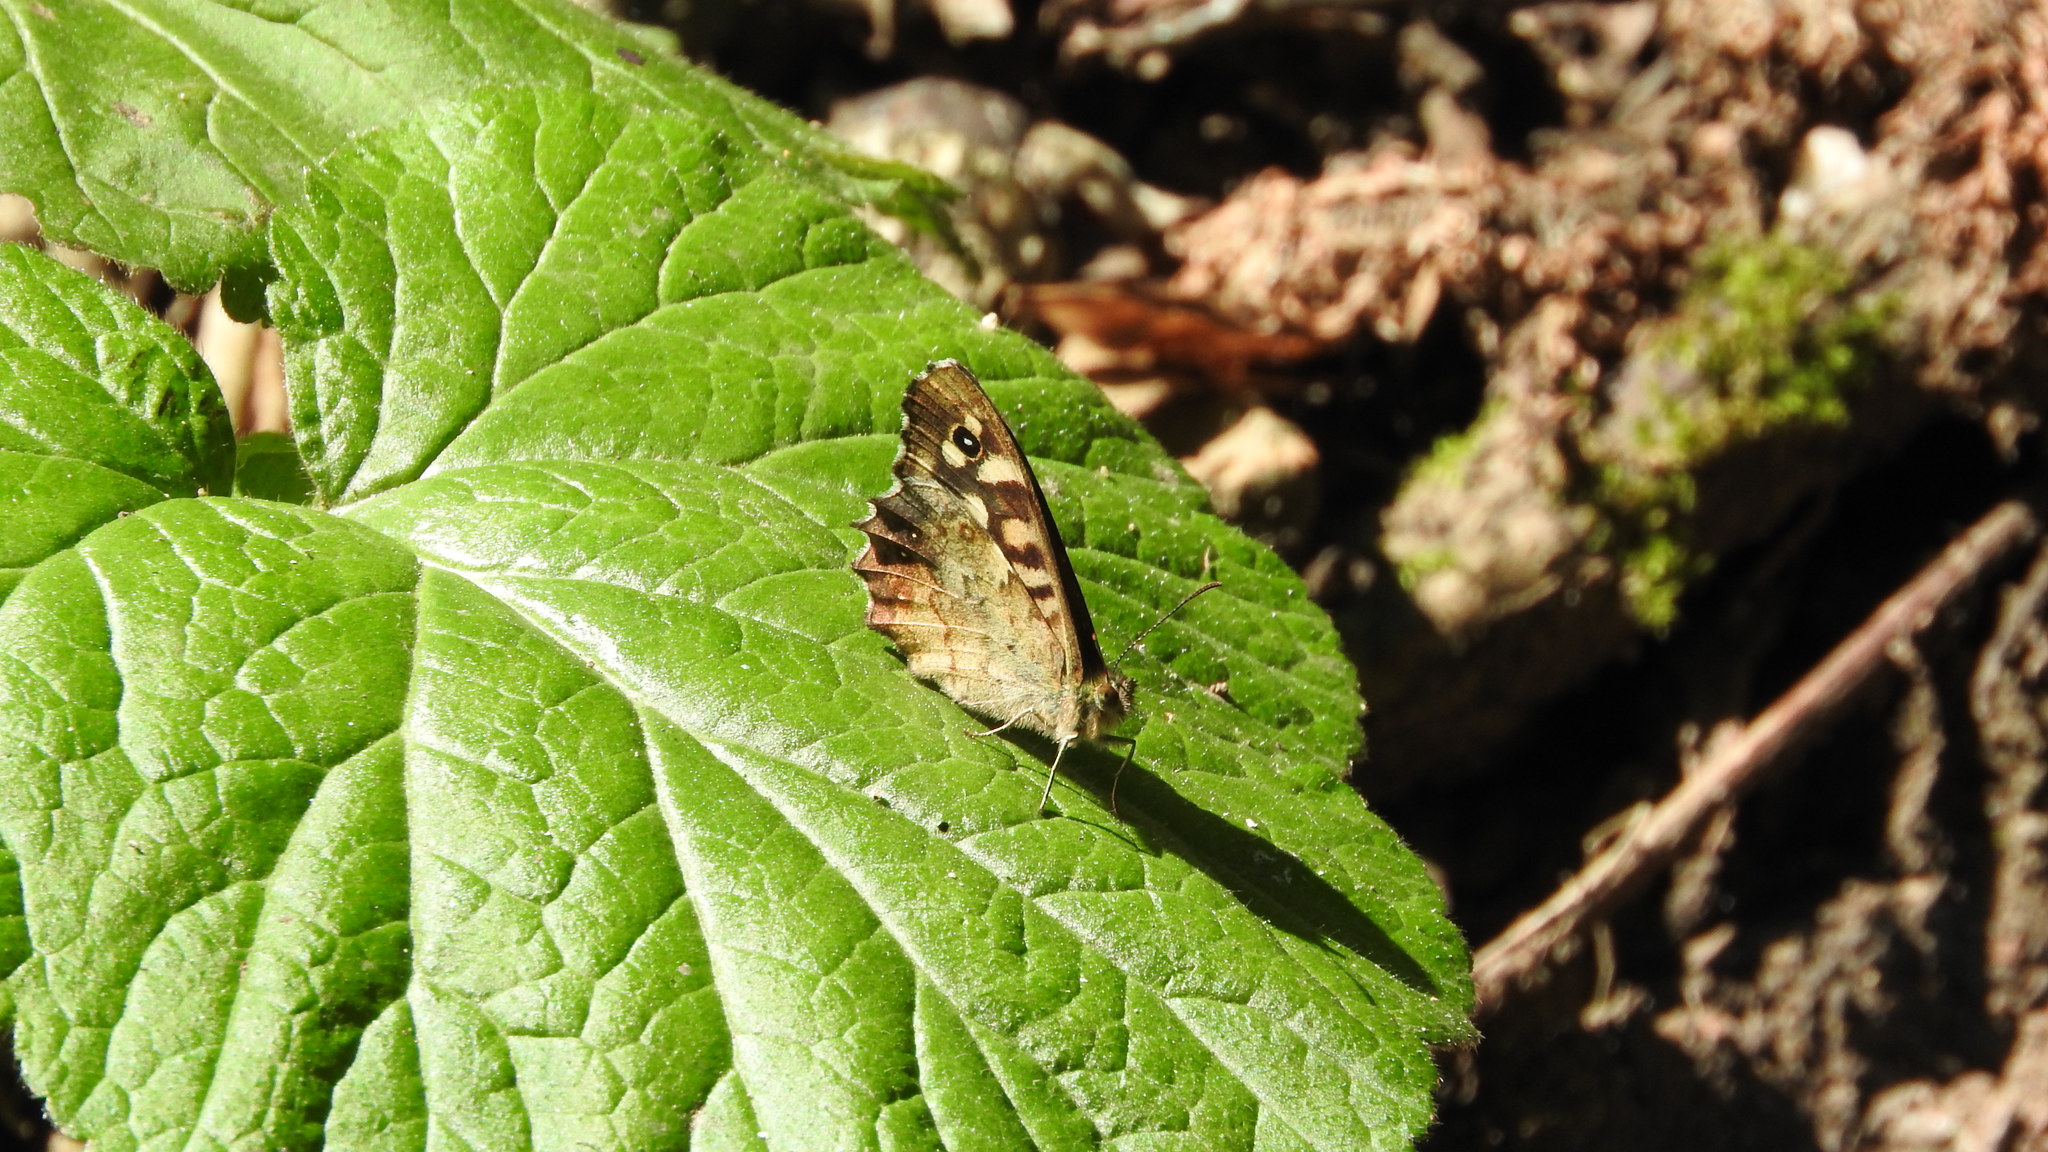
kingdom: Animalia
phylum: Arthropoda
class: Insecta
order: Lepidoptera
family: Nymphalidae
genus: Pararge
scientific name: Pararge aegeria
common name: Speckled wood
